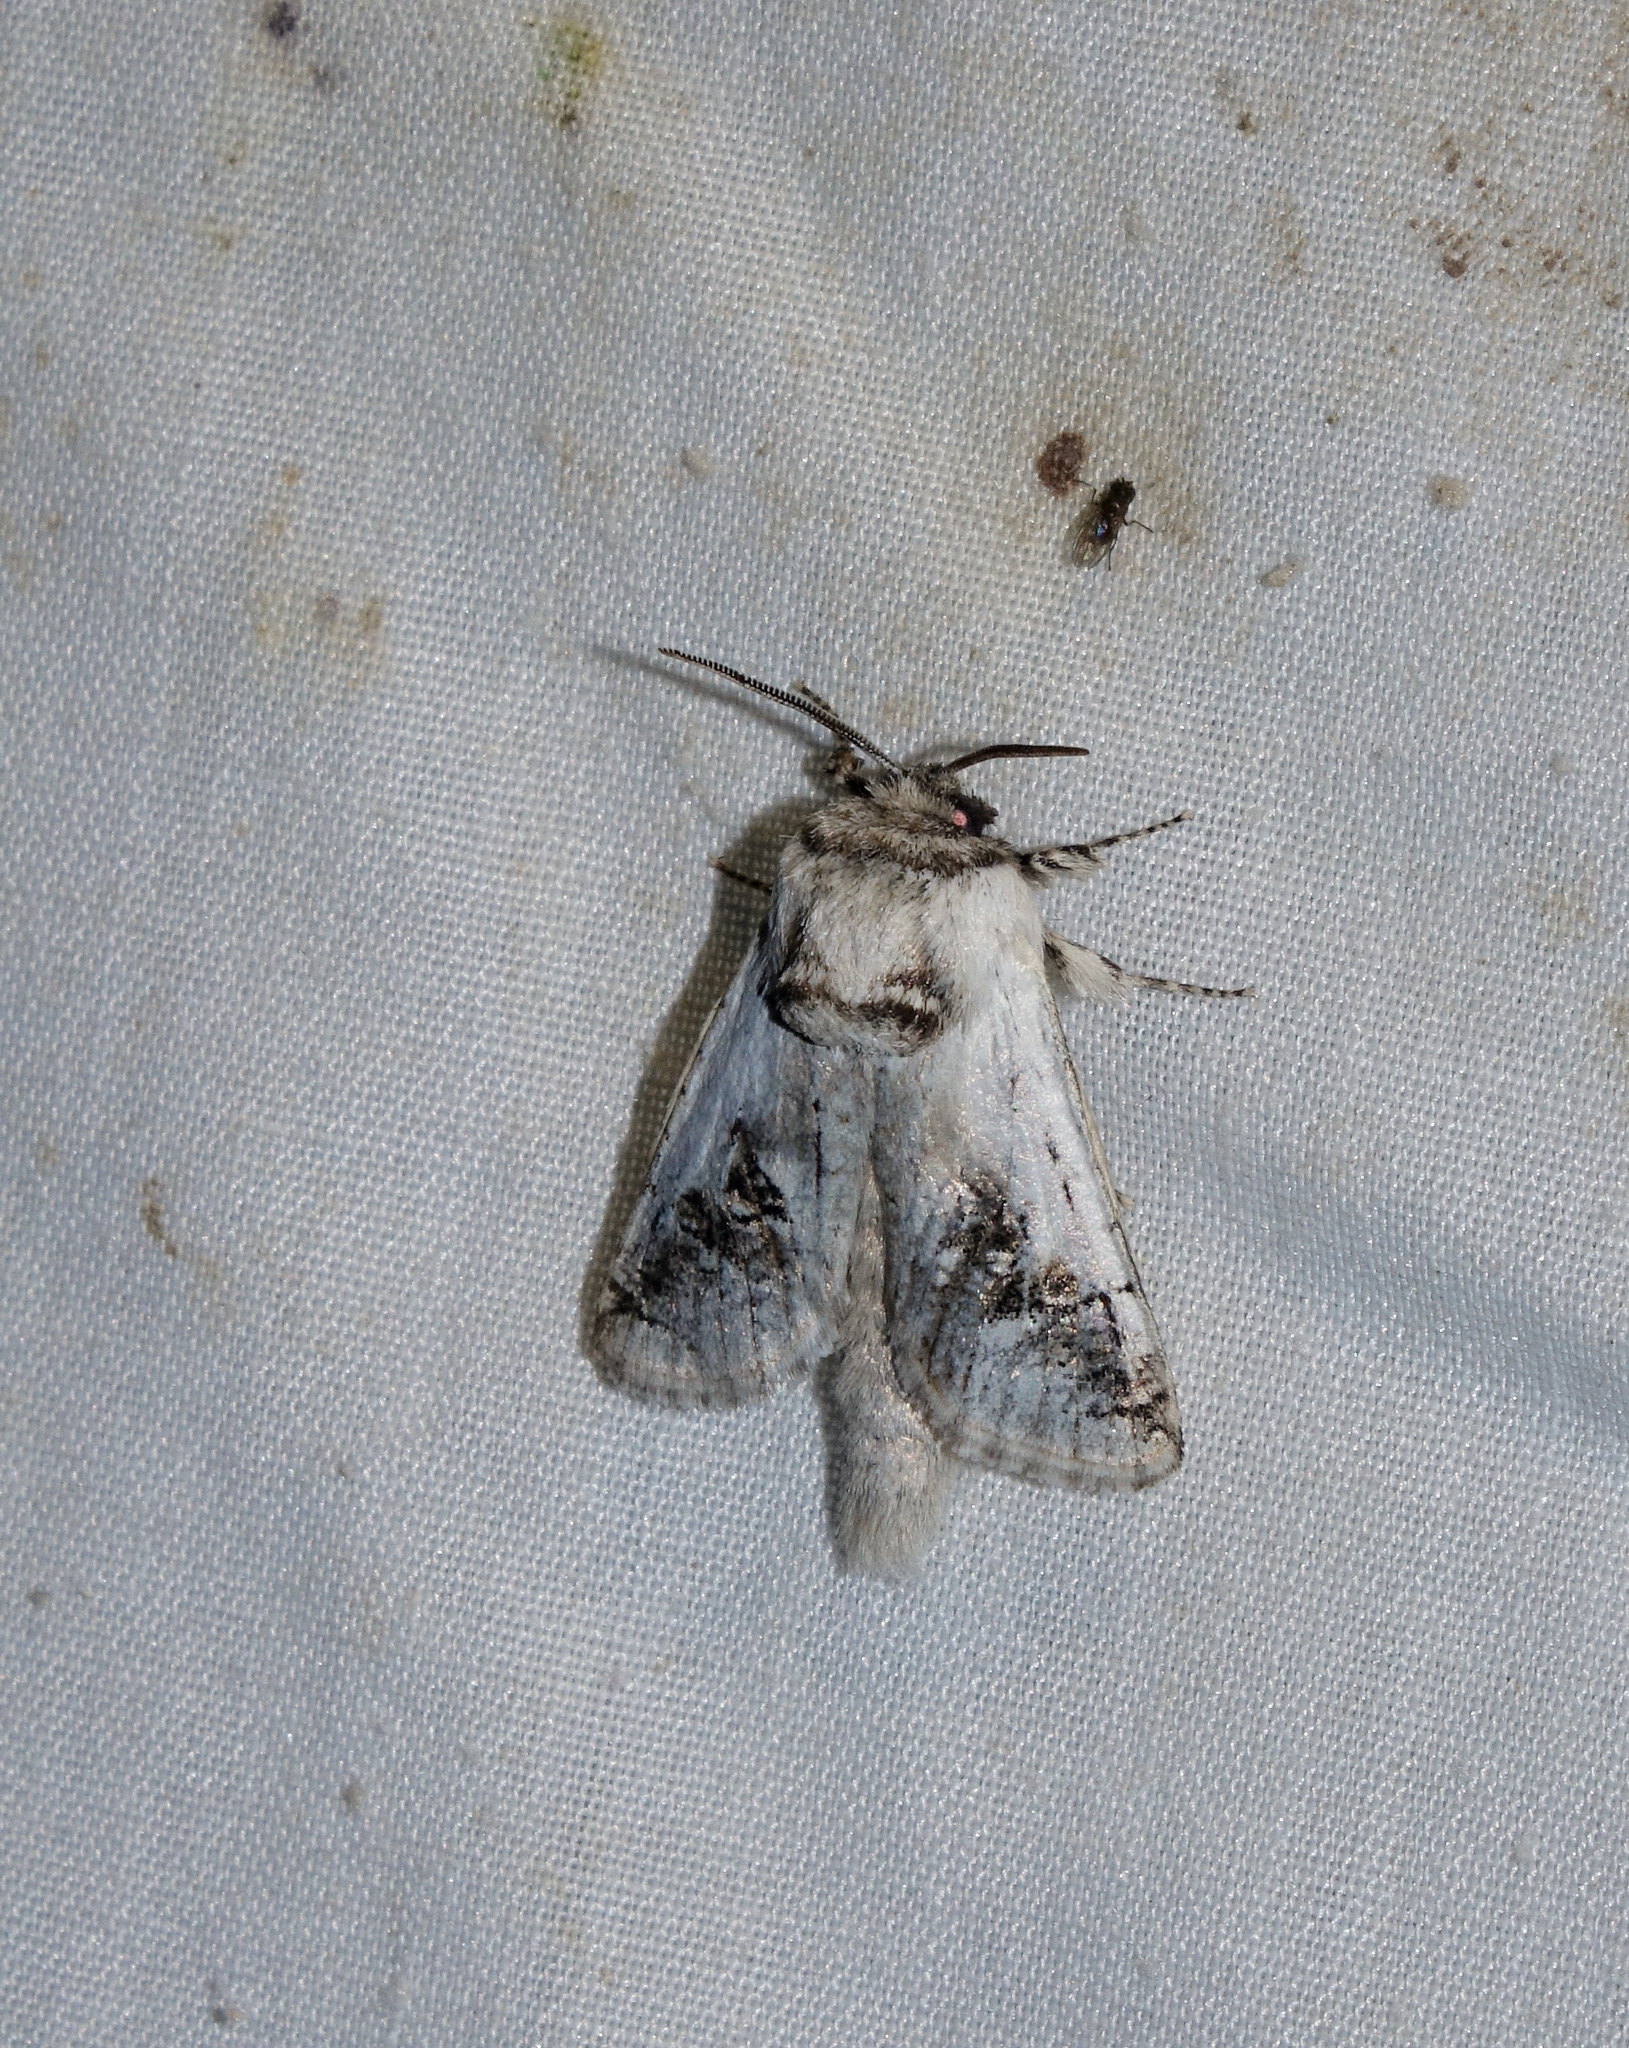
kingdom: Animalia
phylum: Arthropoda
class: Insecta
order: Lepidoptera
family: Cossidae
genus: Parahypopta
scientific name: Parahypopta caestrum
